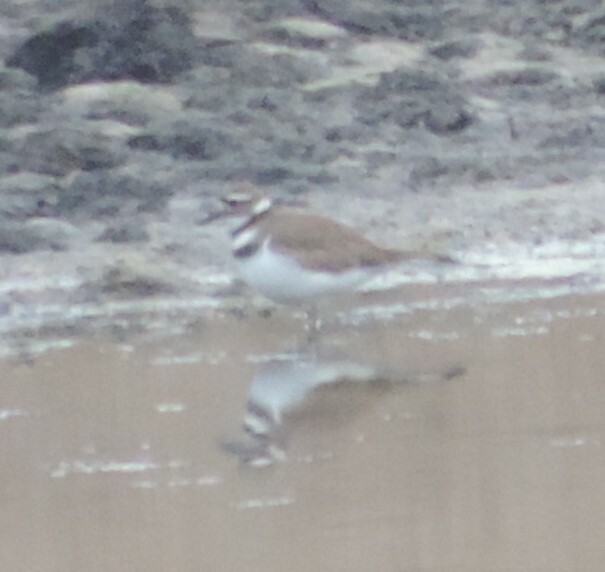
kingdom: Animalia
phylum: Chordata
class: Aves
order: Charadriiformes
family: Charadriidae
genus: Charadrius
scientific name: Charadrius vociferus
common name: Killdeer
